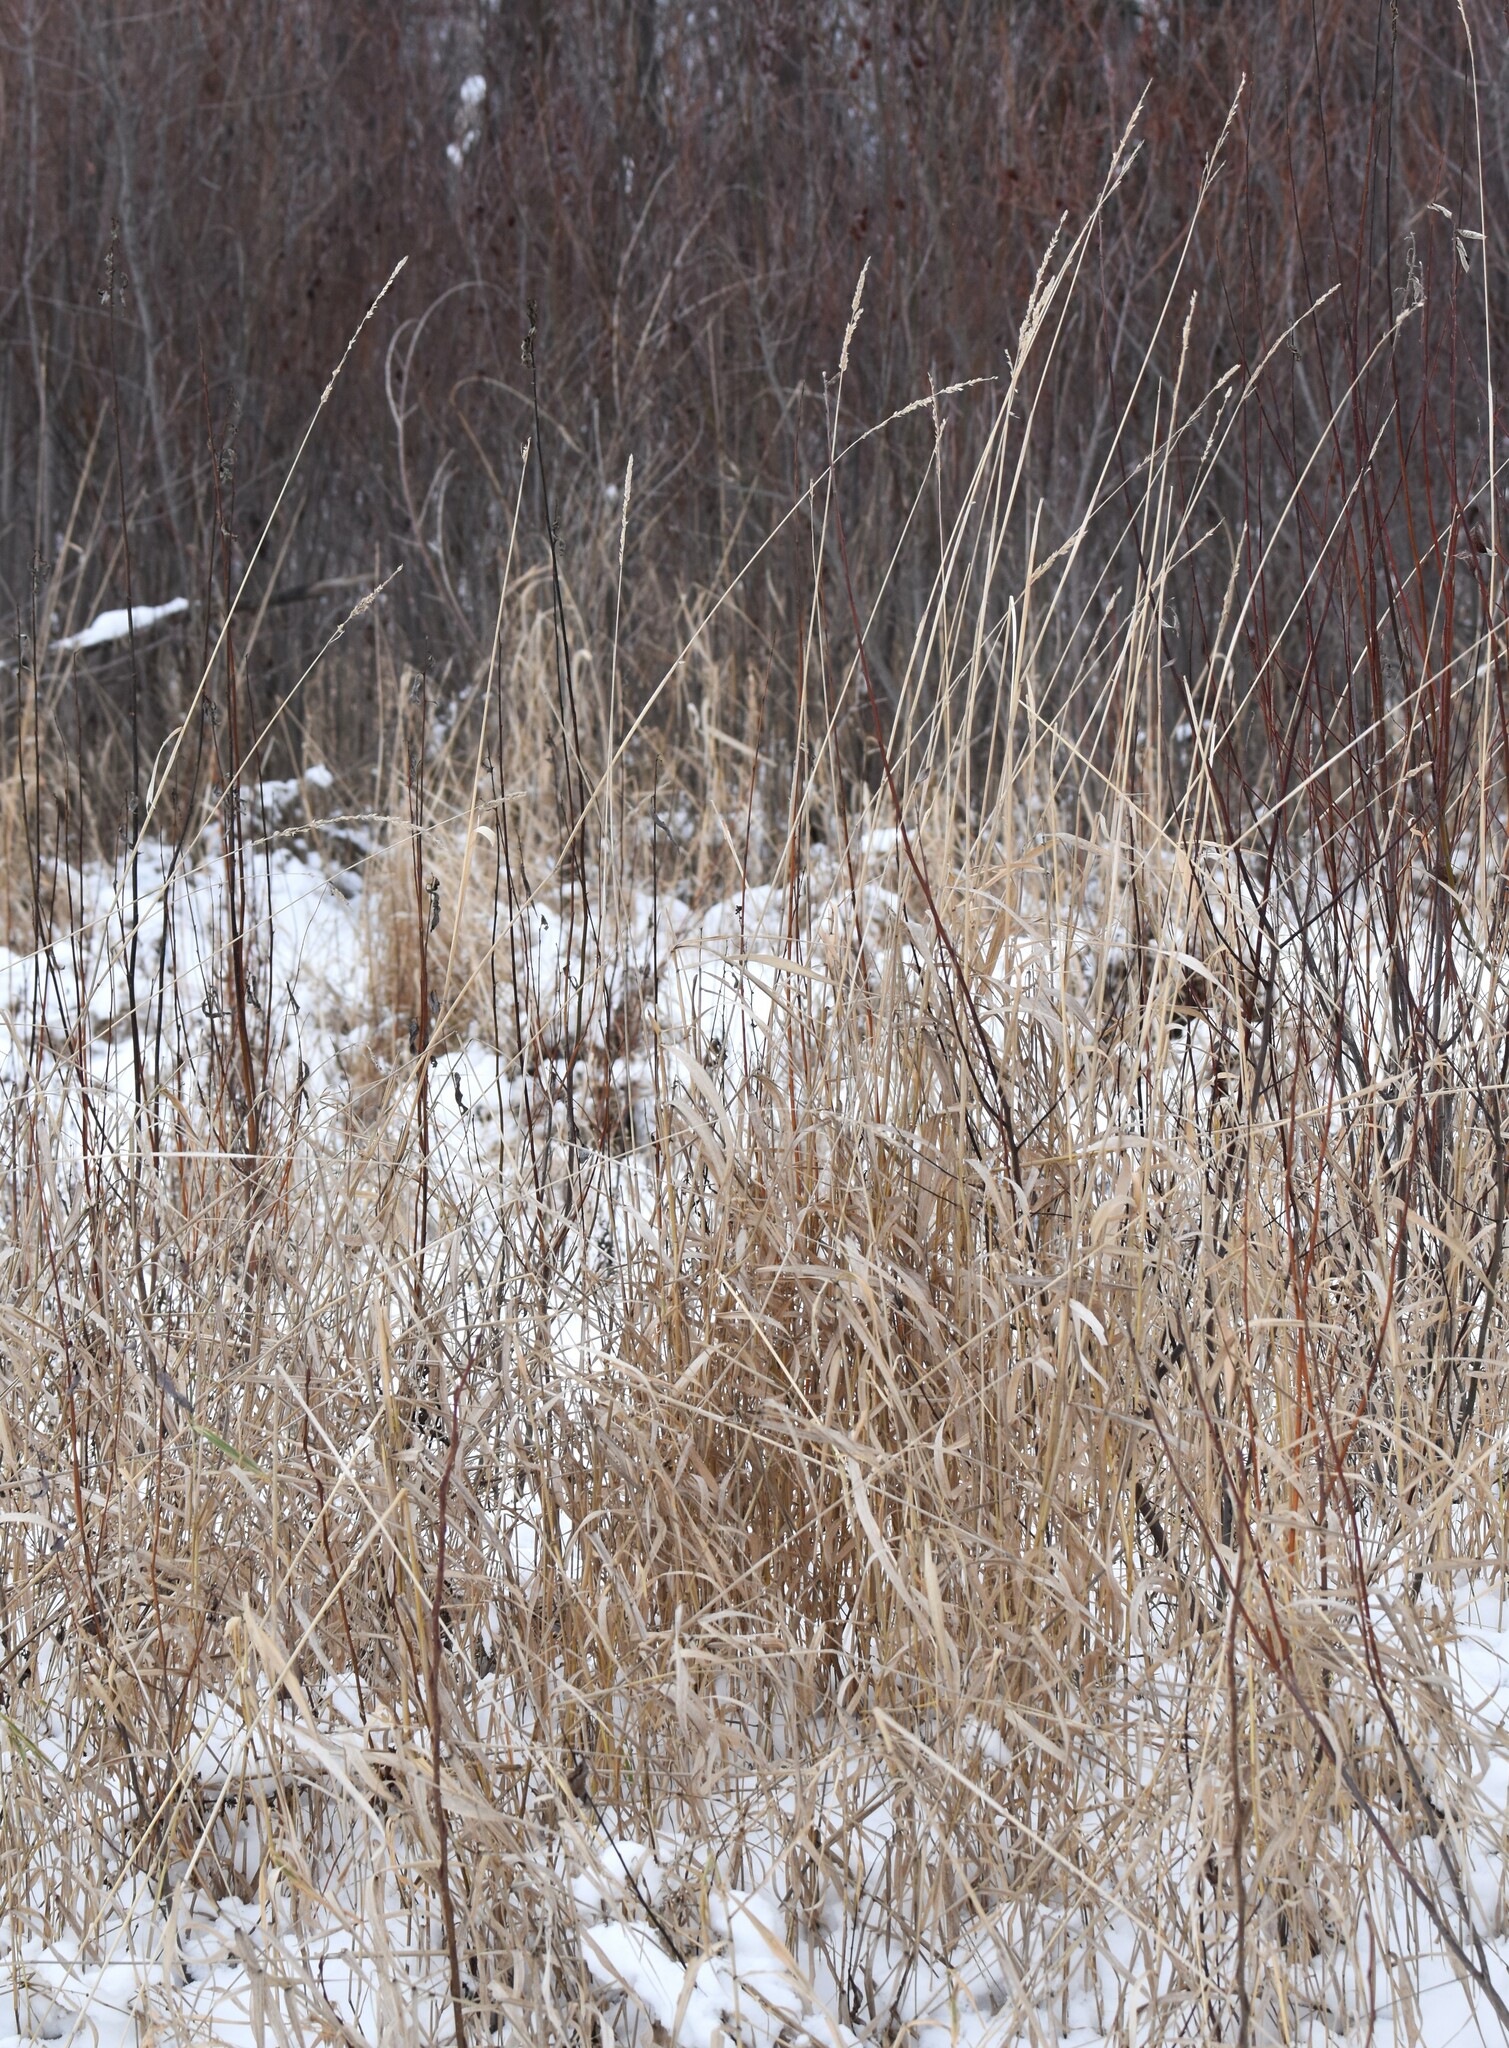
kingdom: Plantae
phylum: Tracheophyta
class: Liliopsida
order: Poales
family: Poaceae
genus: Phalaris
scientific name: Phalaris arundinacea
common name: Reed canary-grass
